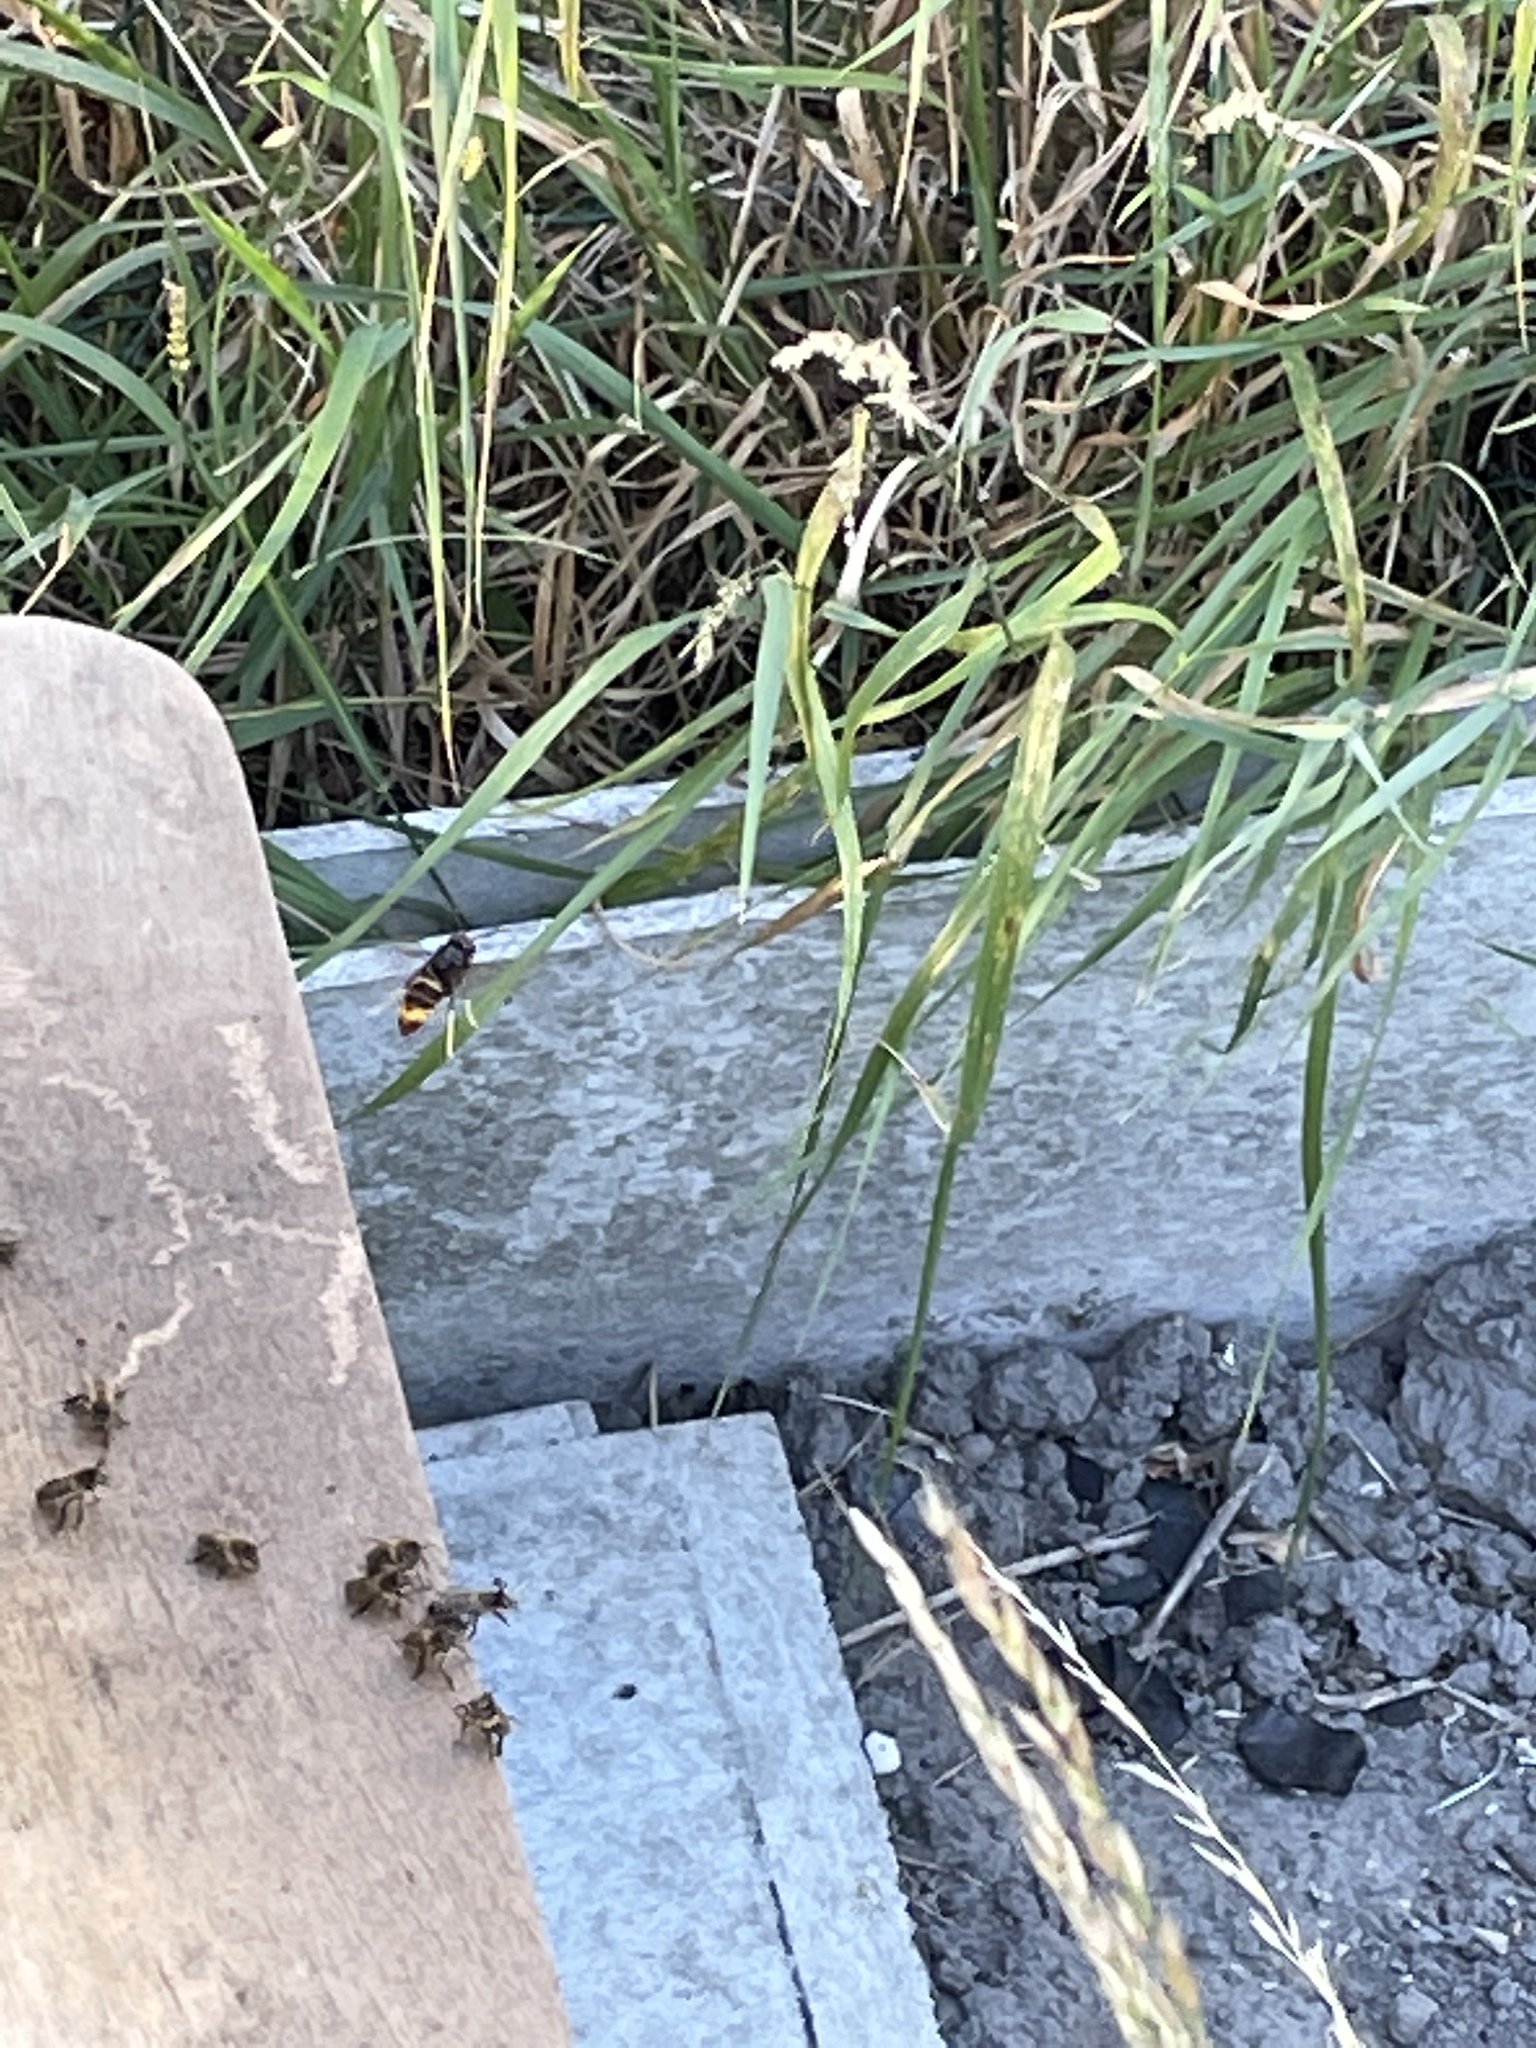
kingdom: Animalia
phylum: Arthropoda
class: Insecta
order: Hymenoptera
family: Vespidae
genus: Vespa
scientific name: Vespa velutina
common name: Asian hornet
